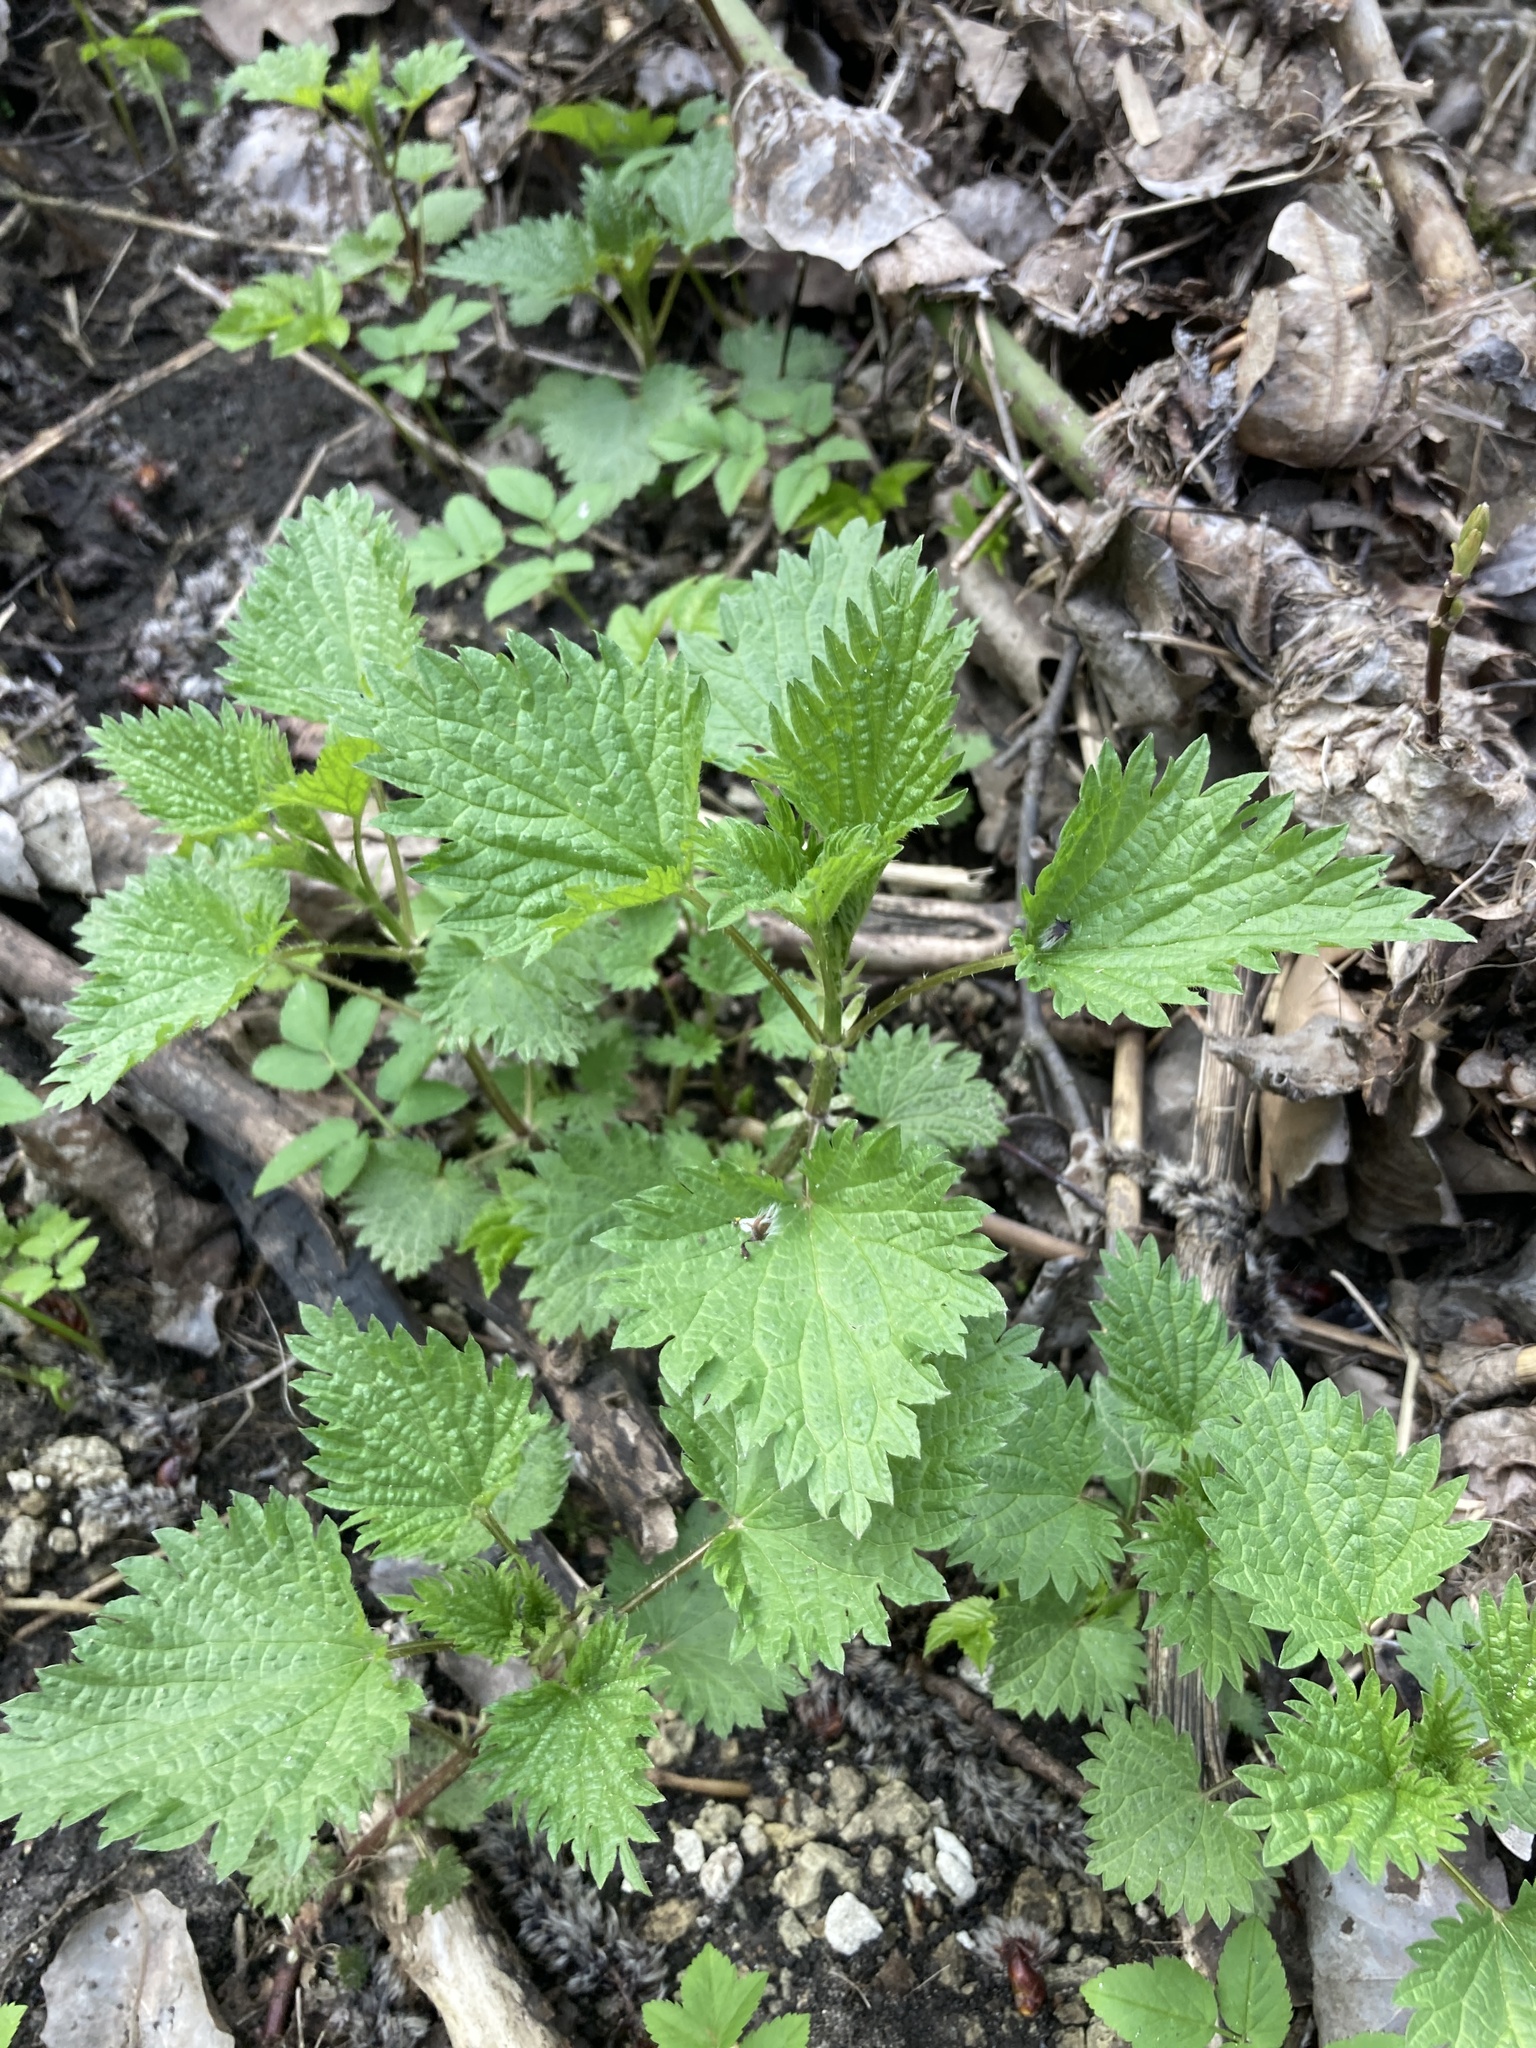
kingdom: Plantae
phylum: Tracheophyta
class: Magnoliopsida
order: Rosales
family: Urticaceae
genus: Urtica
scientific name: Urtica dioica
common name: Common nettle
